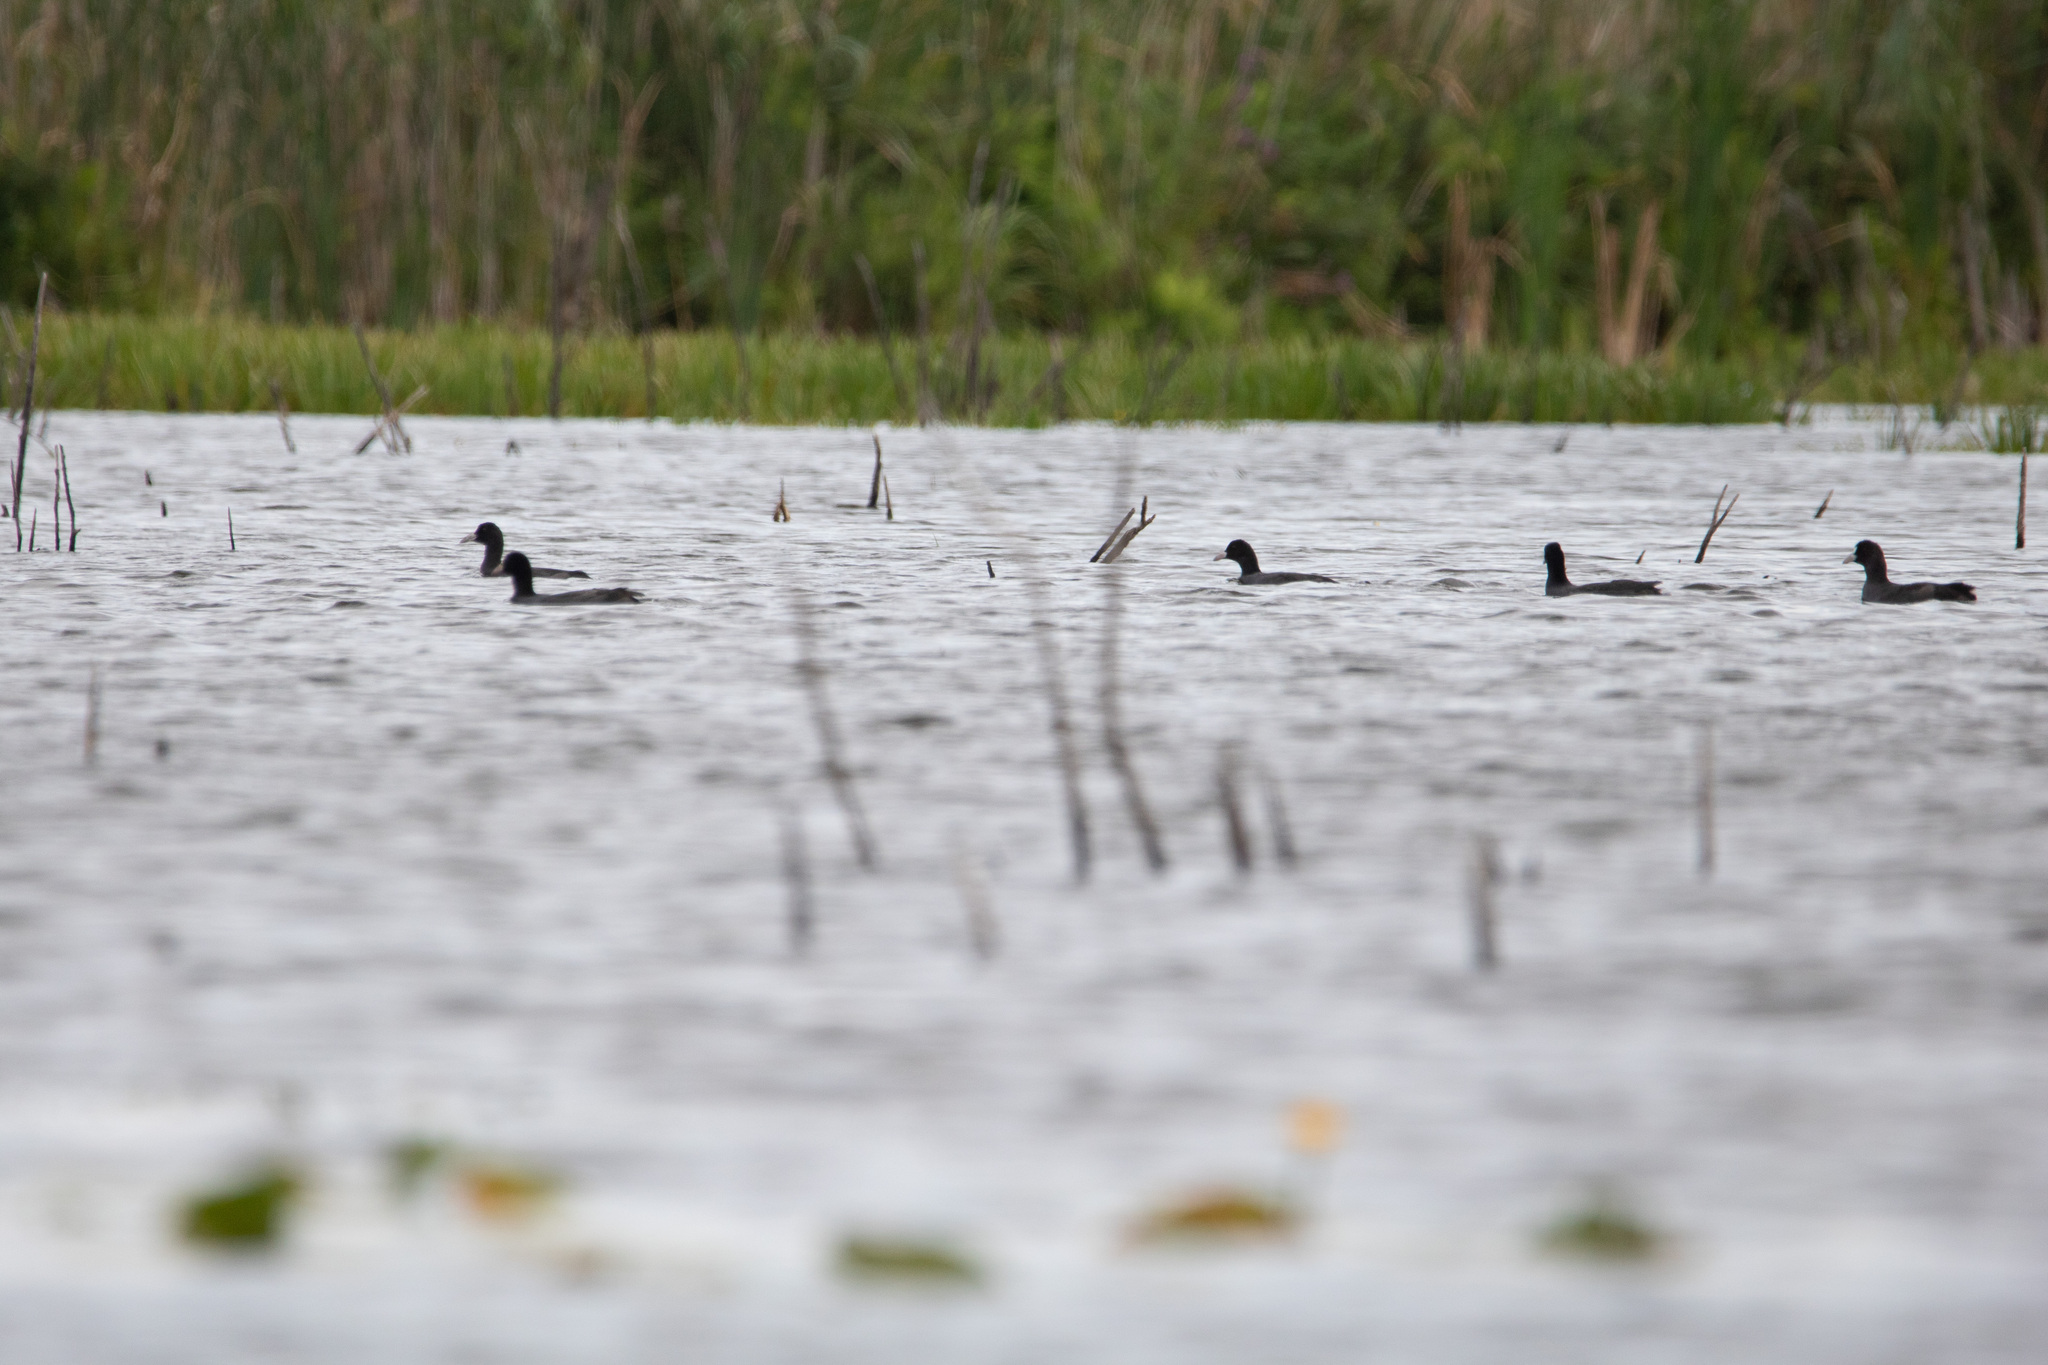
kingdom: Animalia
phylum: Chordata
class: Aves
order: Gruiformes
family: Rallidae
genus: Fulica
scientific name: Fulica atra
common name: Eurasian coot
